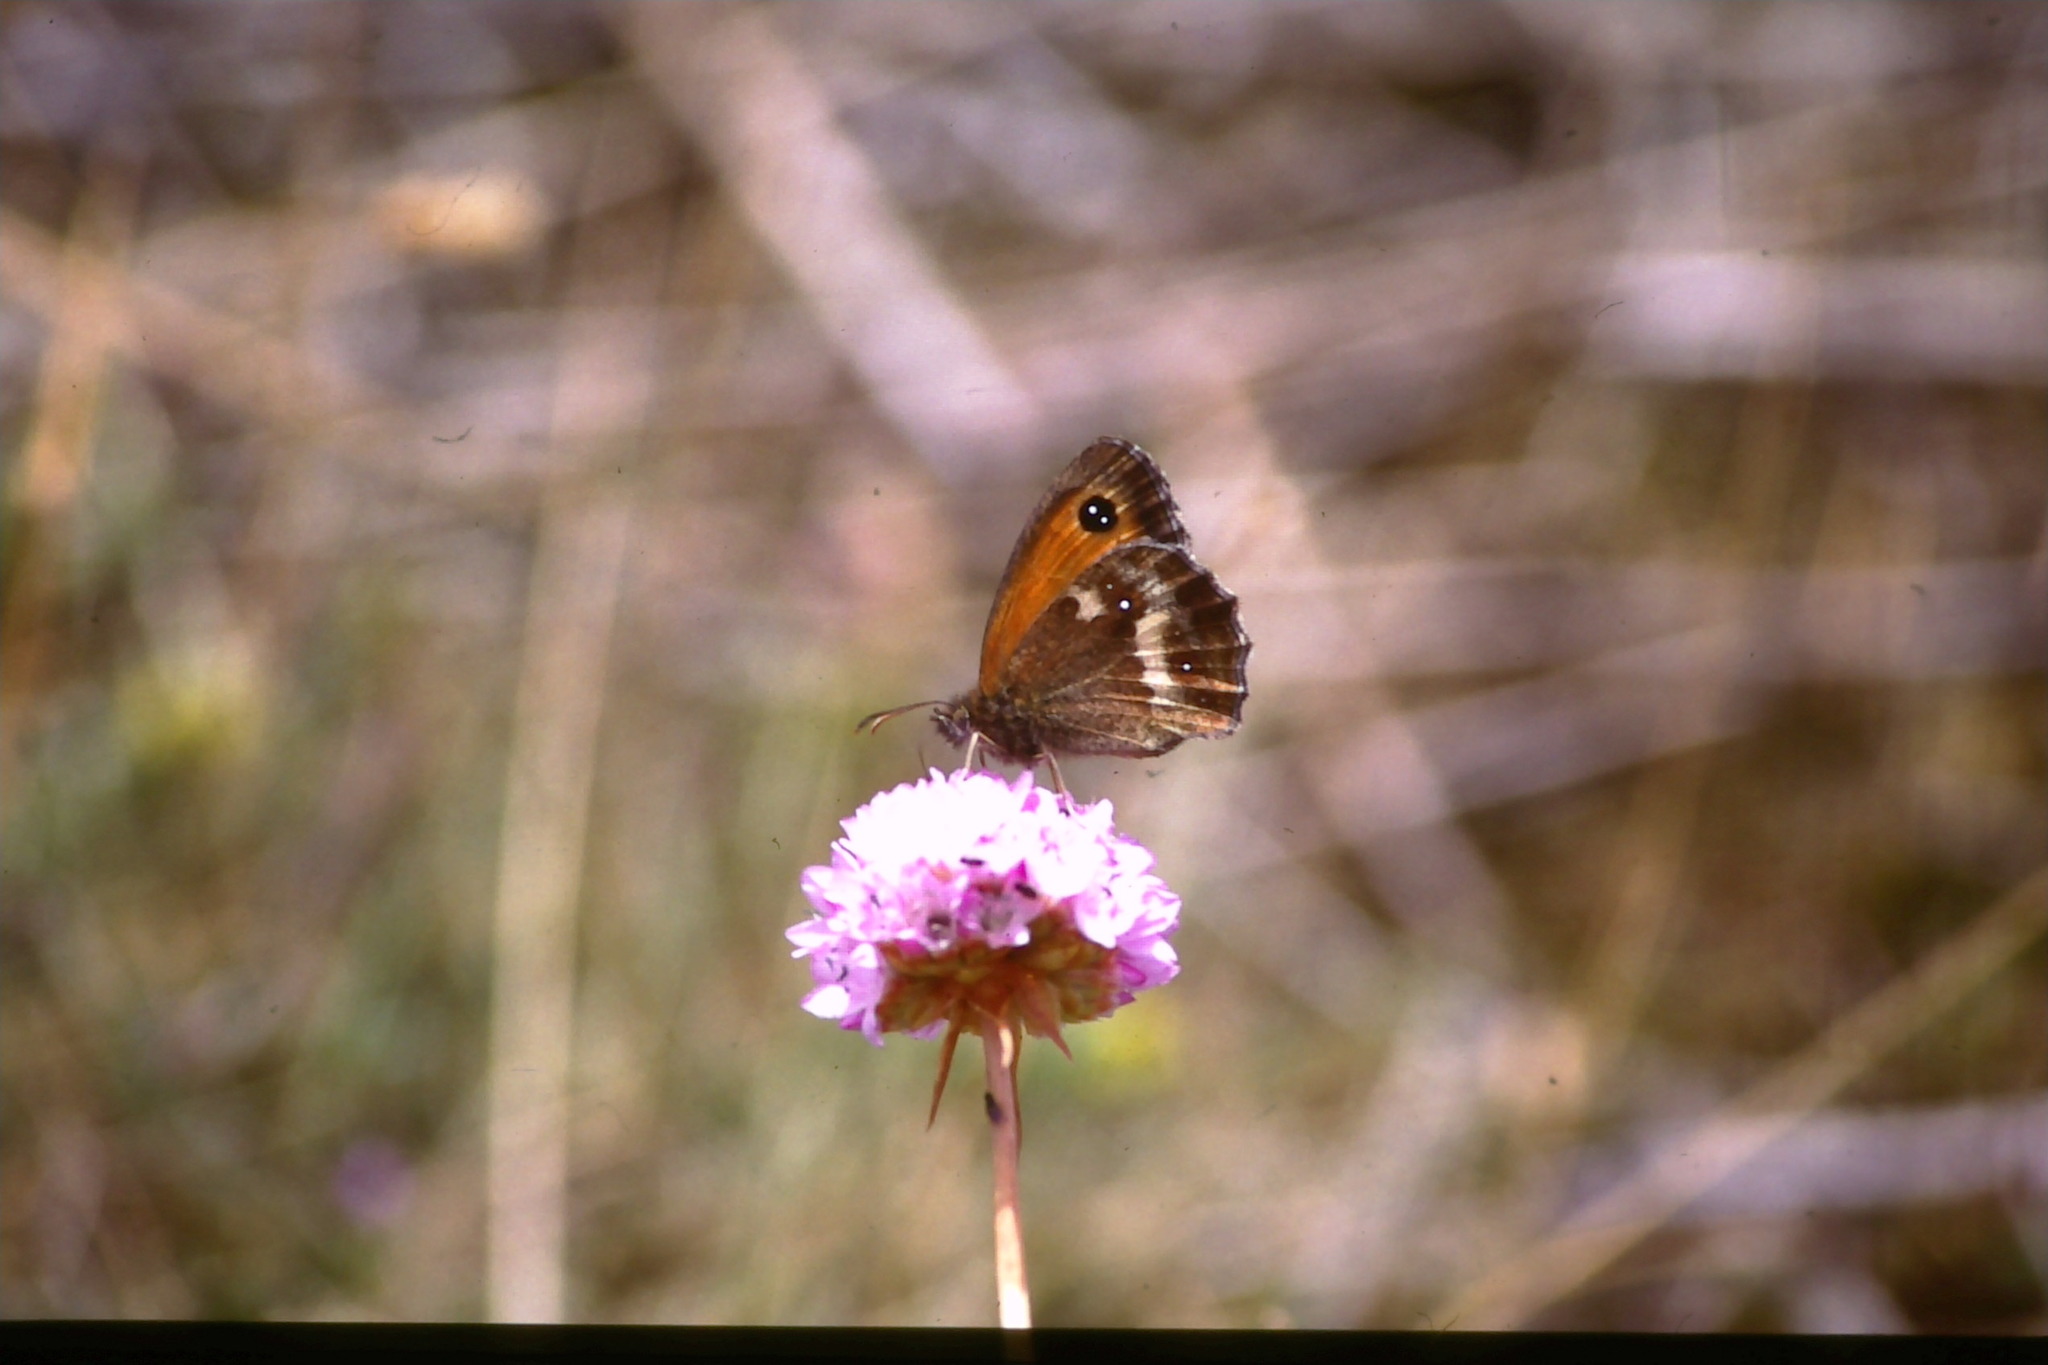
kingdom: Animalia
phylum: Arthropoda
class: Insecta
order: Lepidoptera
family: Nymphalidae
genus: Pyronia
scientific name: Pyronia tithonus
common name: Gatekeeper
